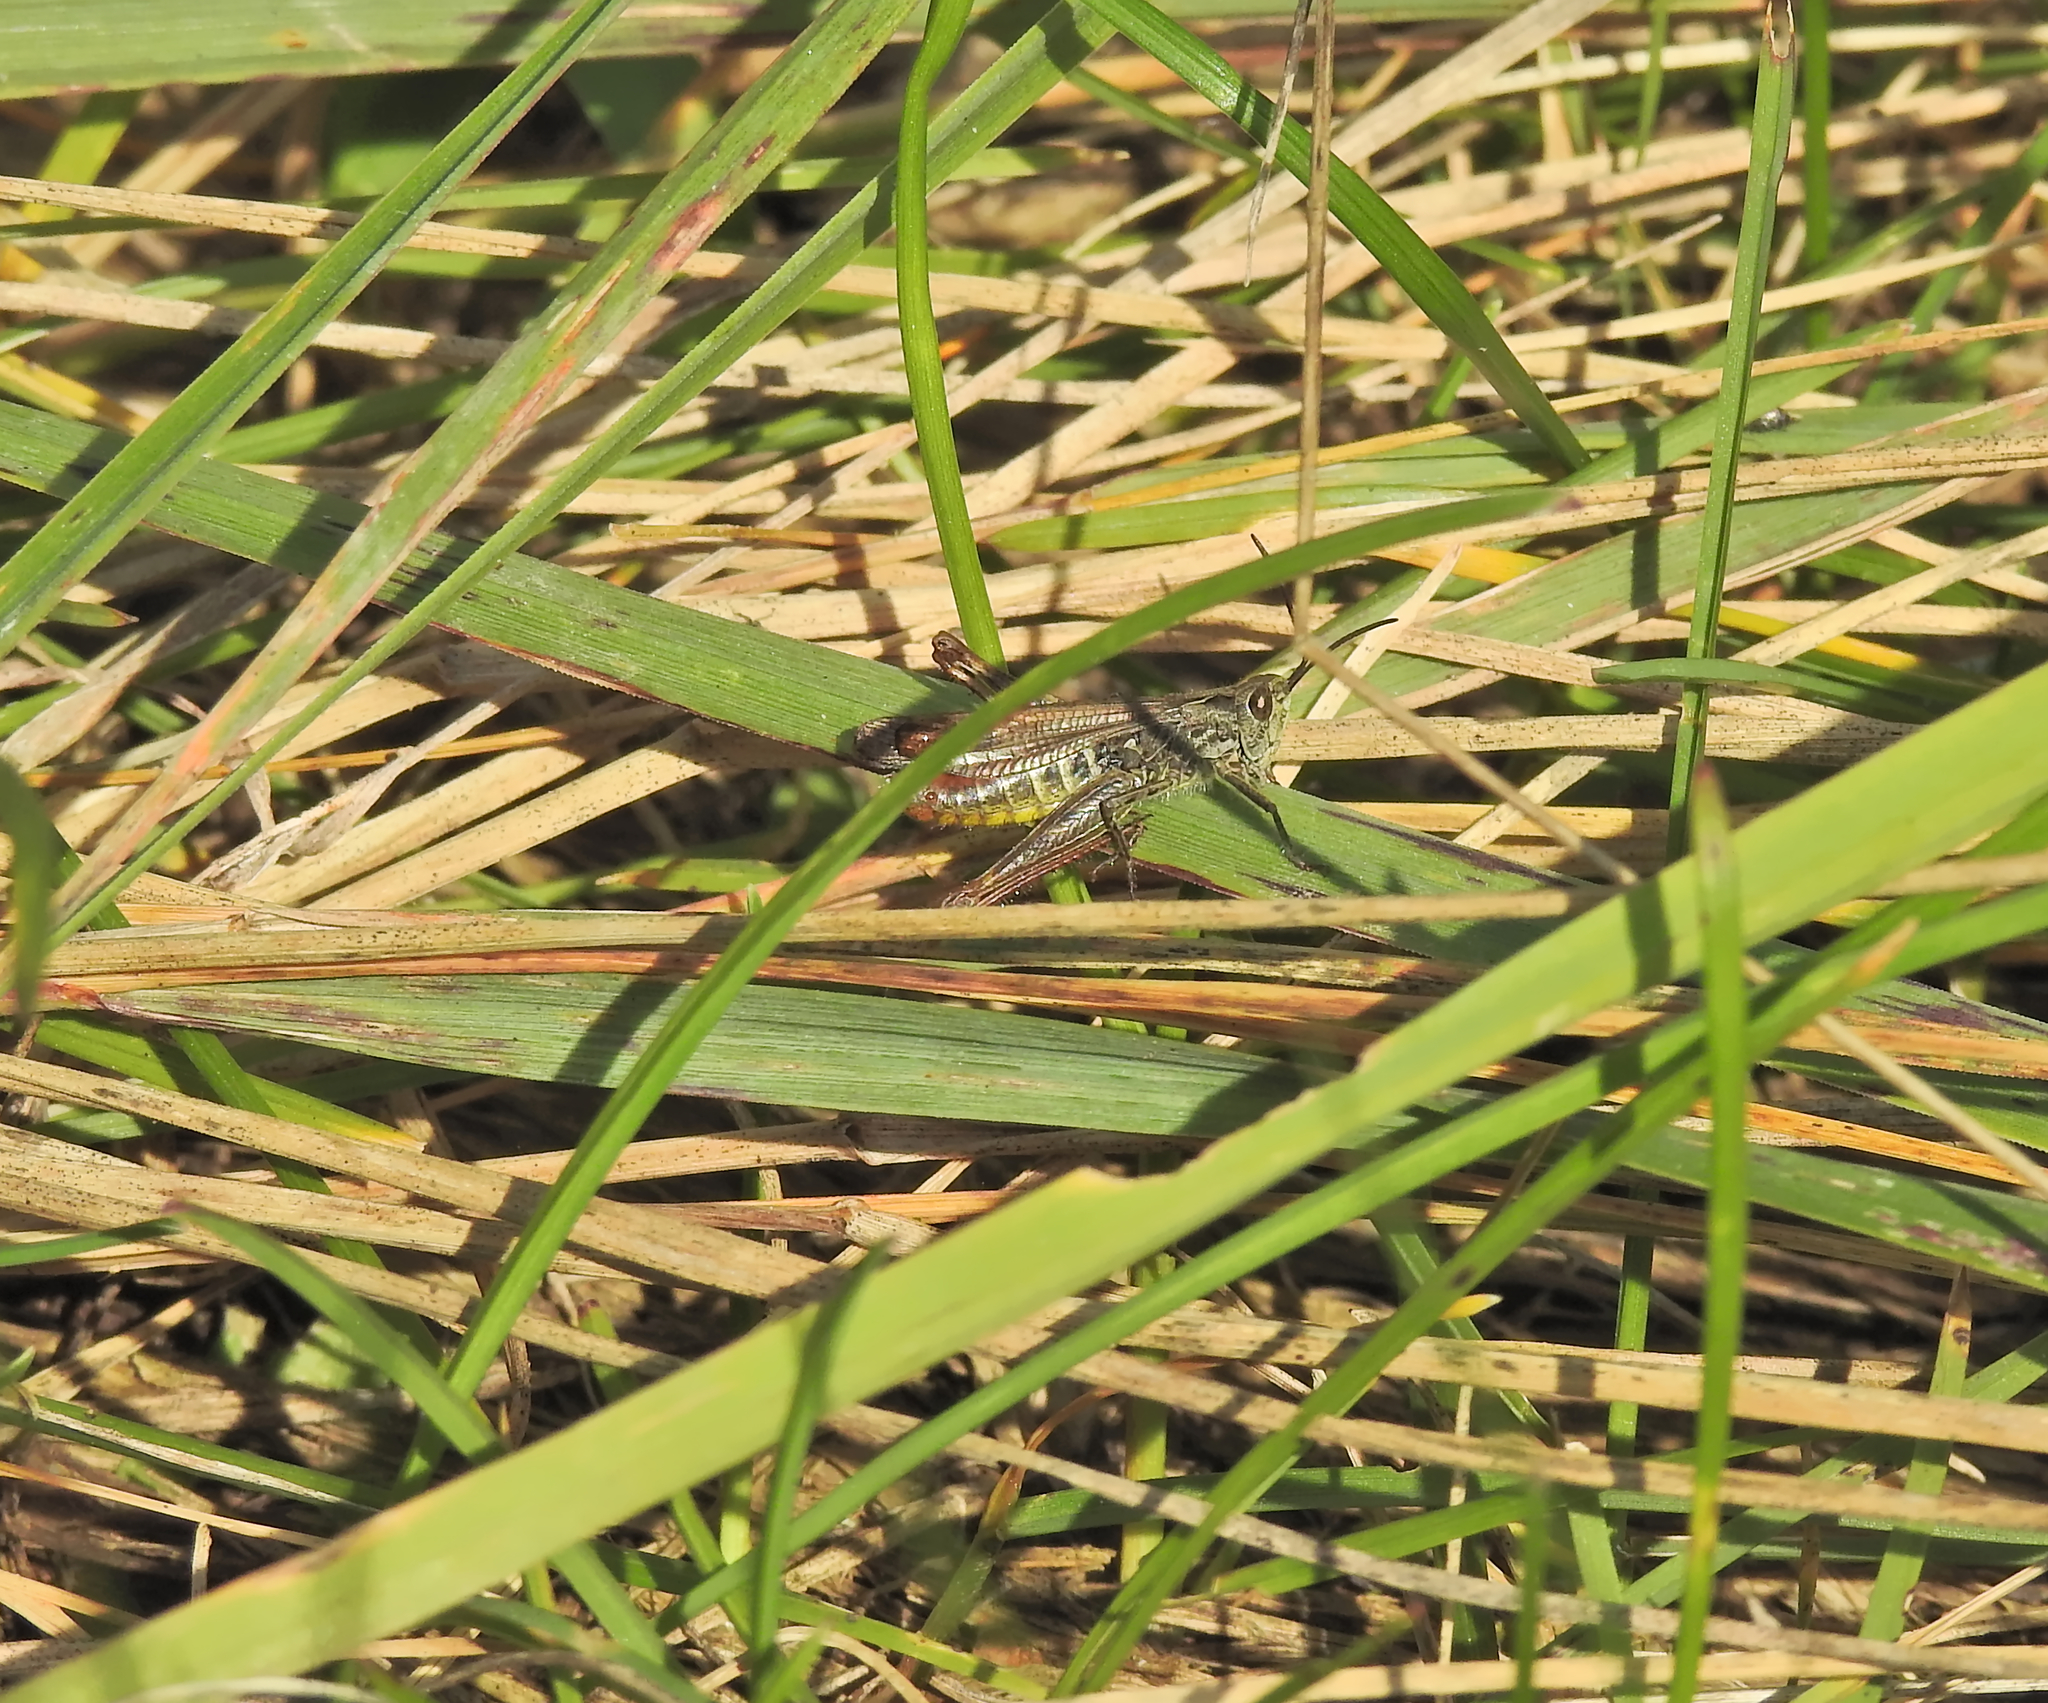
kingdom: Animalia
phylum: Arthropoda
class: Insecta
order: Orthoptera
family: Acrididae
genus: Chorthippus
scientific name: Chorthippus biguttulus
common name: Bow-winged grasshopper
